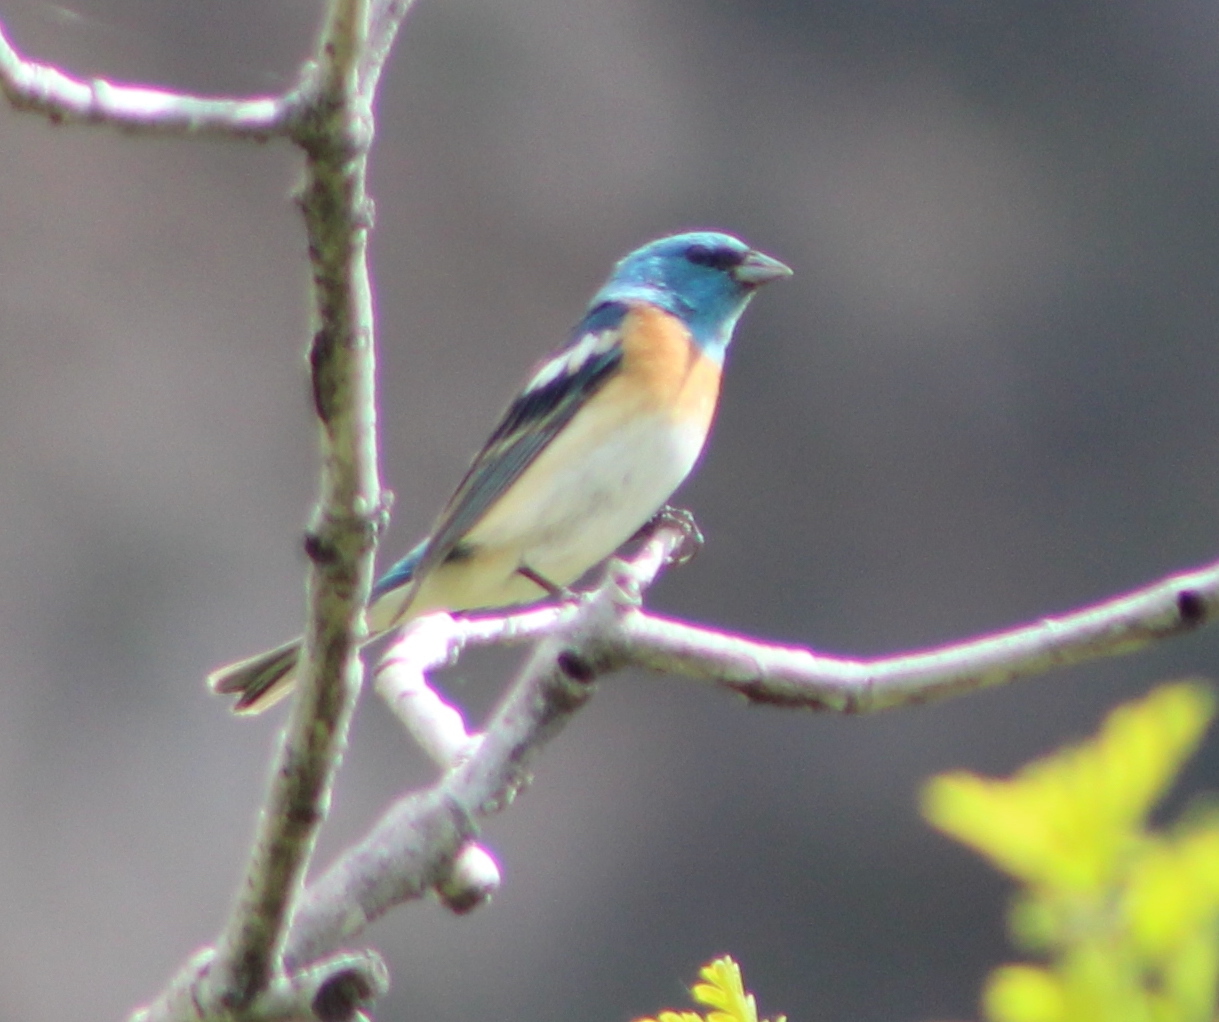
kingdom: Animalia
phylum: Chordata
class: Aves
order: Passeriformes
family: Cardinalidae
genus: Passerina
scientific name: Passerina amoena
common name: Lazuli bunting
